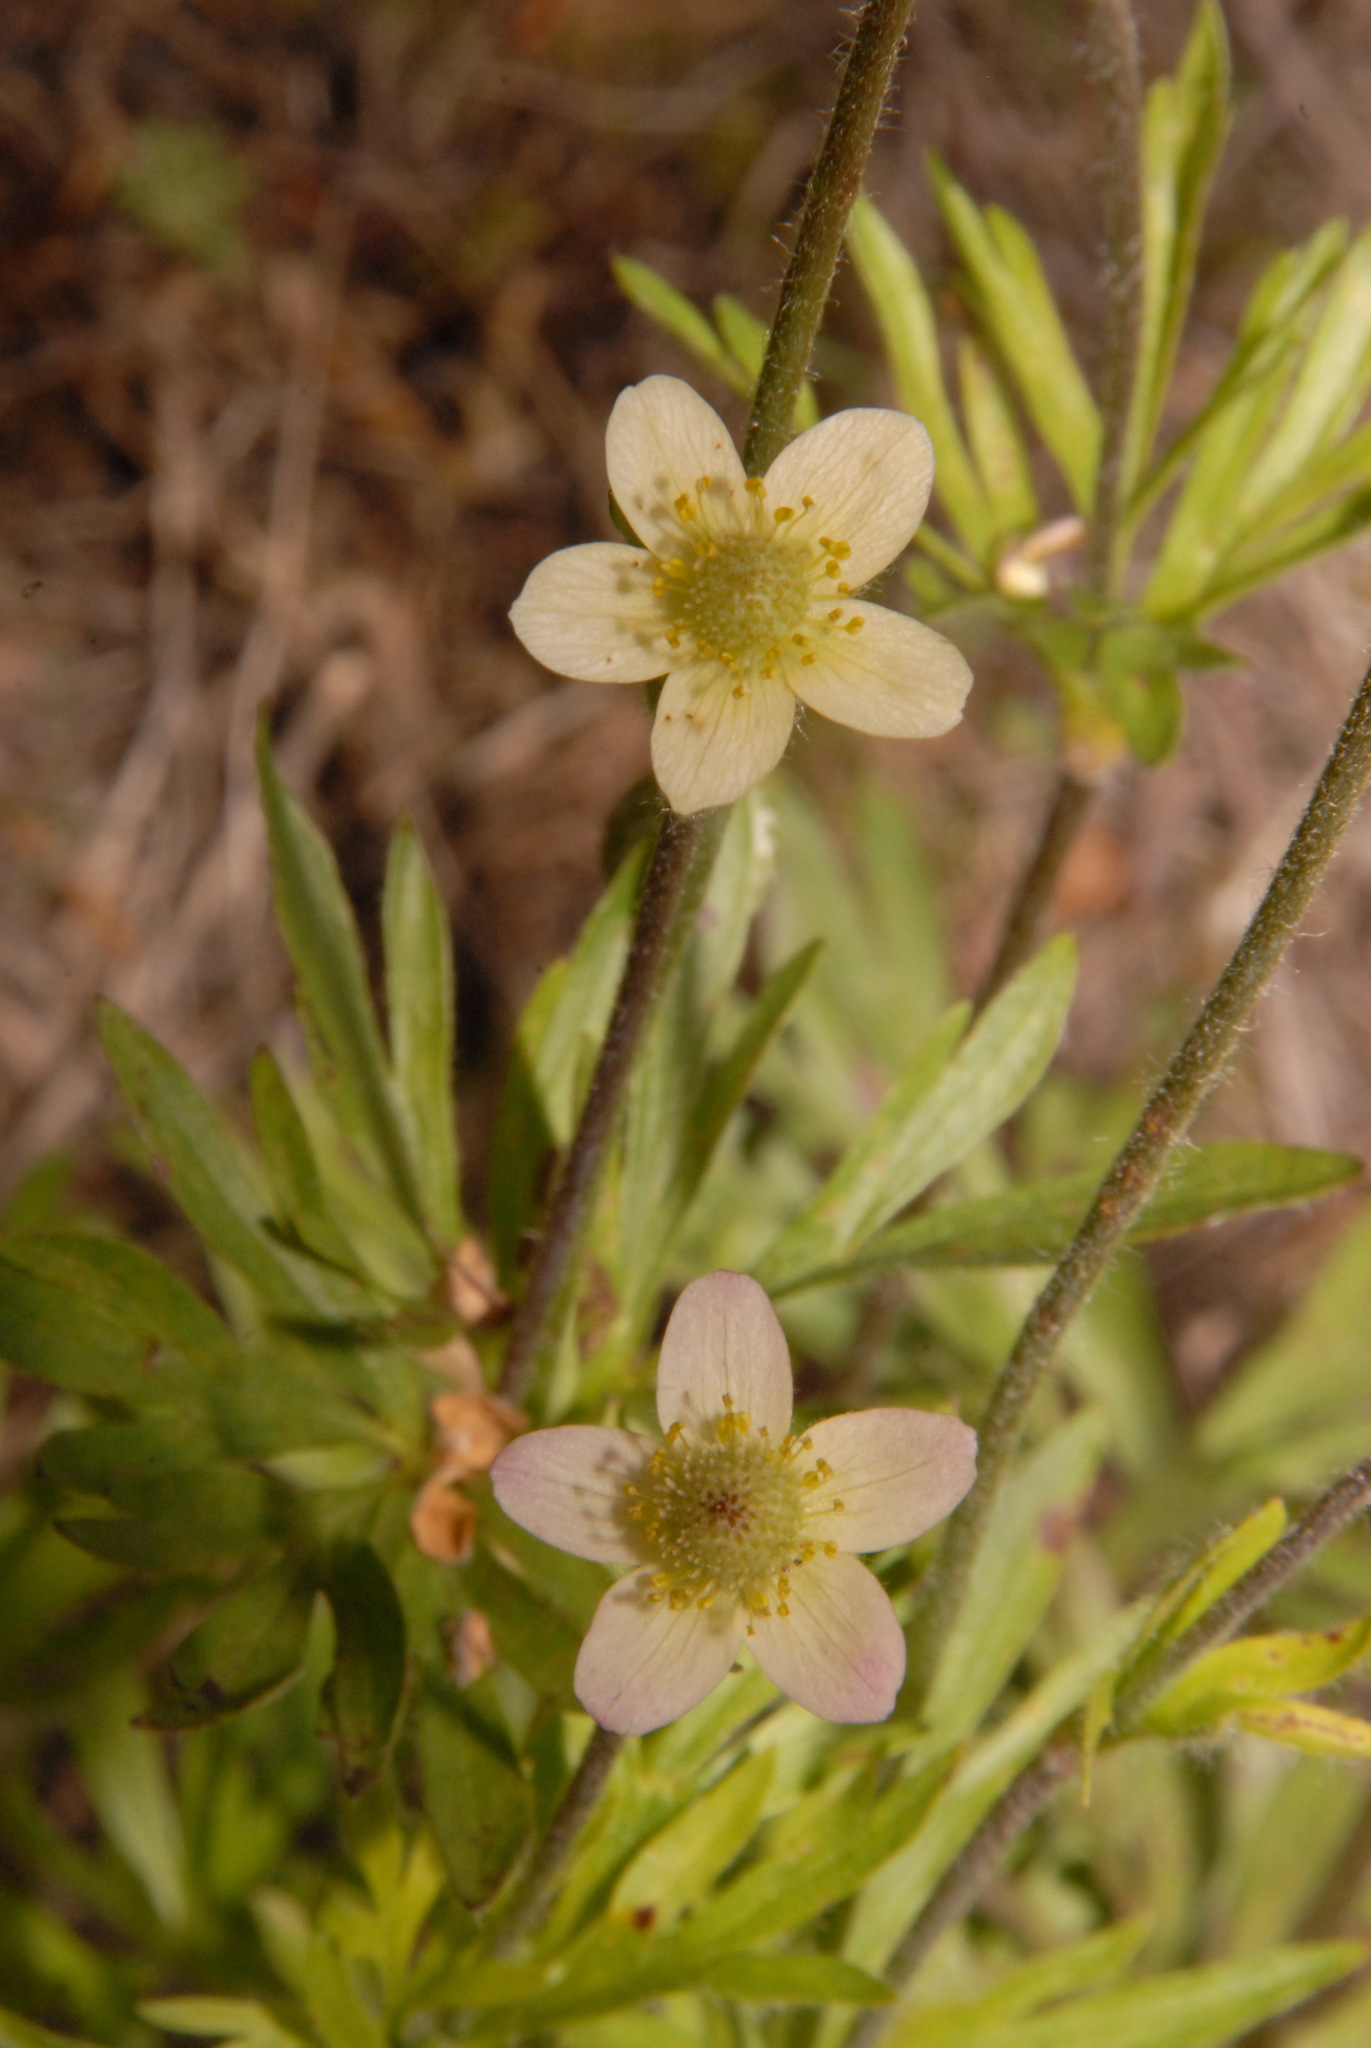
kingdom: Plantae
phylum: Tracheophyta
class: Magnoliopsida
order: Ranunculales
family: Ranunculaceae
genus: Anemone
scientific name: Anemone multifida
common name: Bird's-foot anemone
